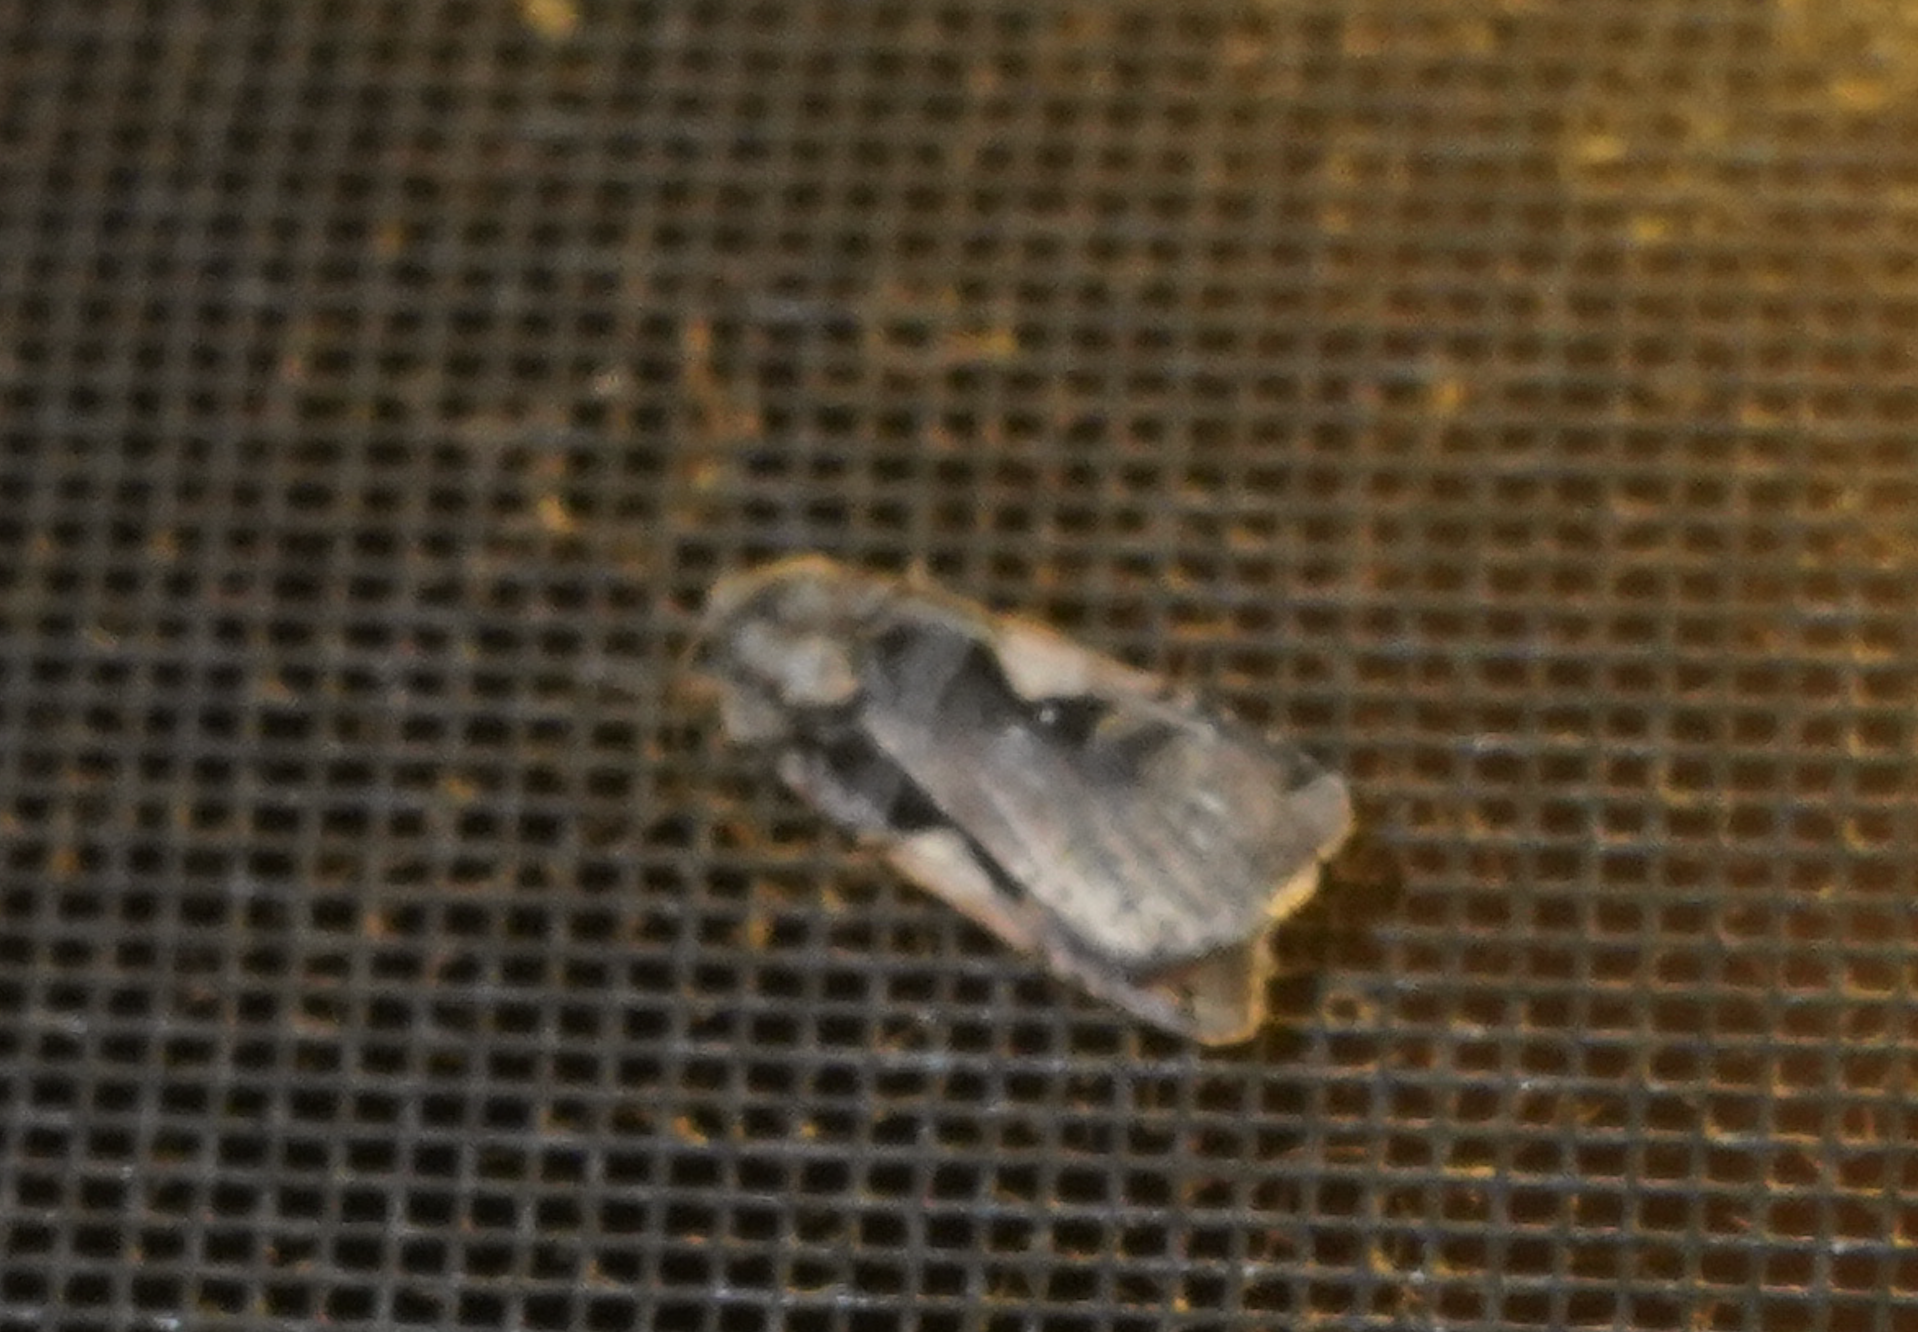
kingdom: Animalia
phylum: Arthropoda
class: Insecta
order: Lepidoptera
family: Noctuidae
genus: Xestia
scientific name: Xestia
